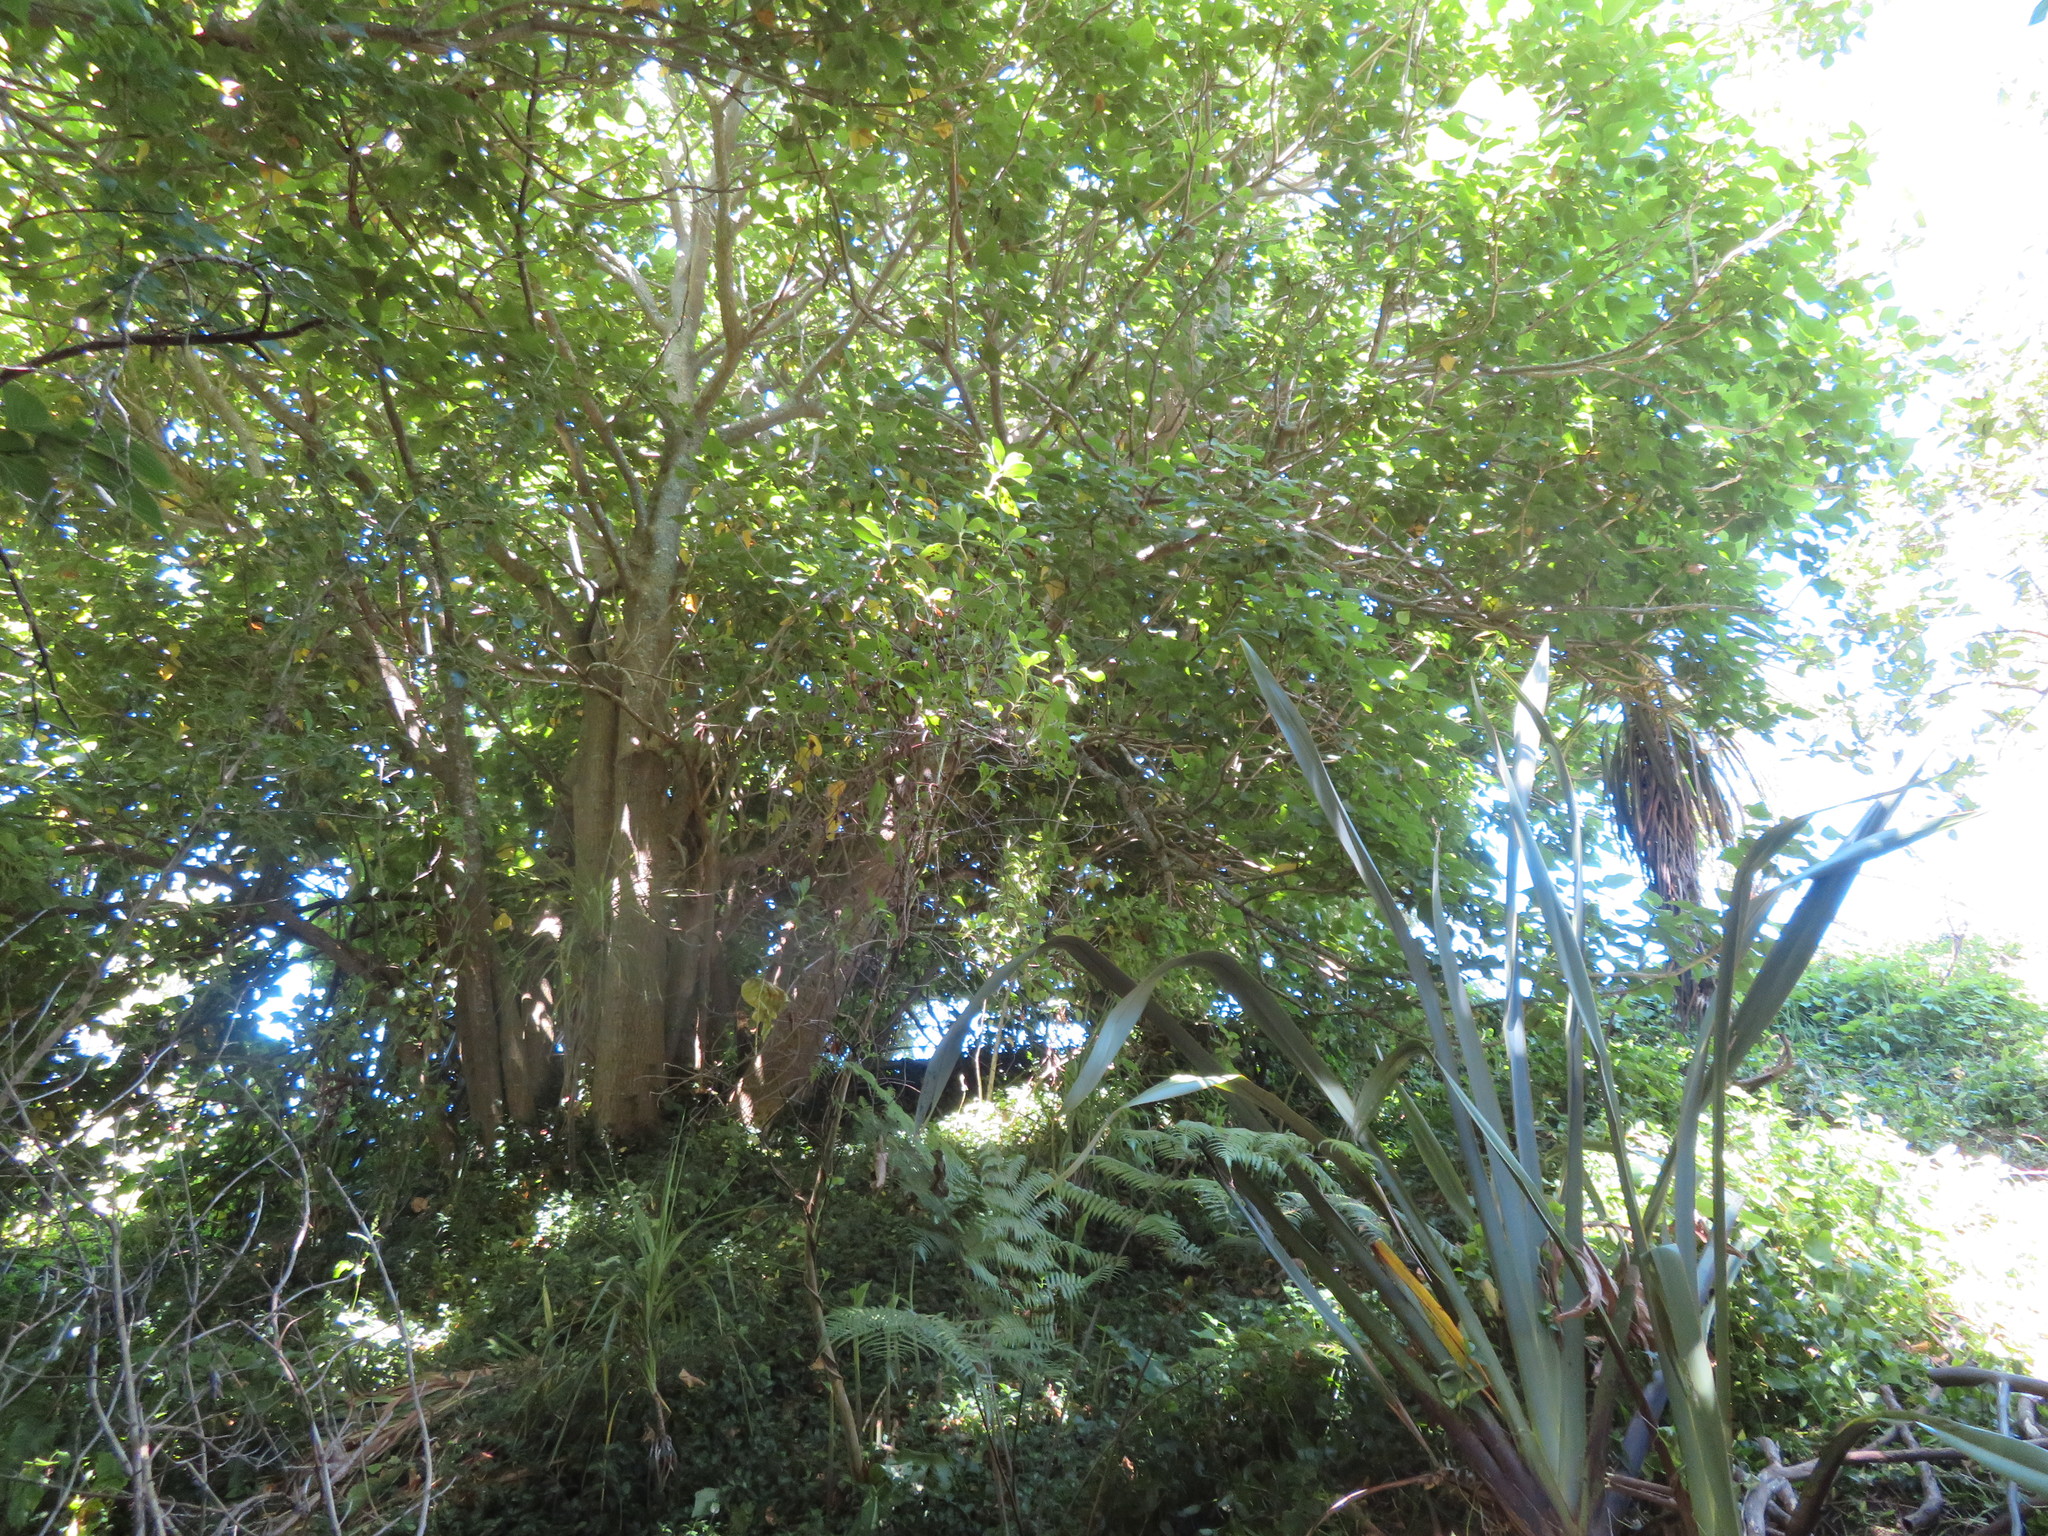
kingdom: Plantae
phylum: Tracheophyta
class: Liliopsida
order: Commelinales
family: Commelinaceae
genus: Tradescantia
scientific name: Tradescantia fluminensis
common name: Wandering-jew
